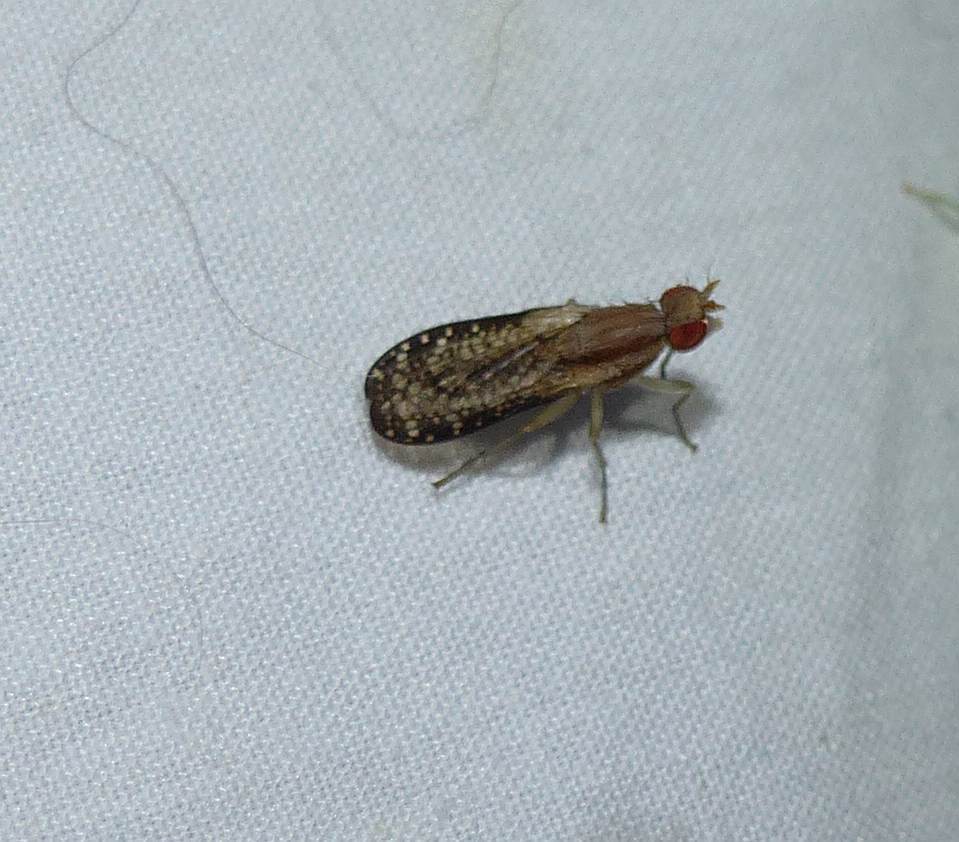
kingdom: Animalia
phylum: Arthropoda
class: Insecta
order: Diptera
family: Sciomyzidae
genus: Trypetoptera
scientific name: Trypetoptera canadensis
